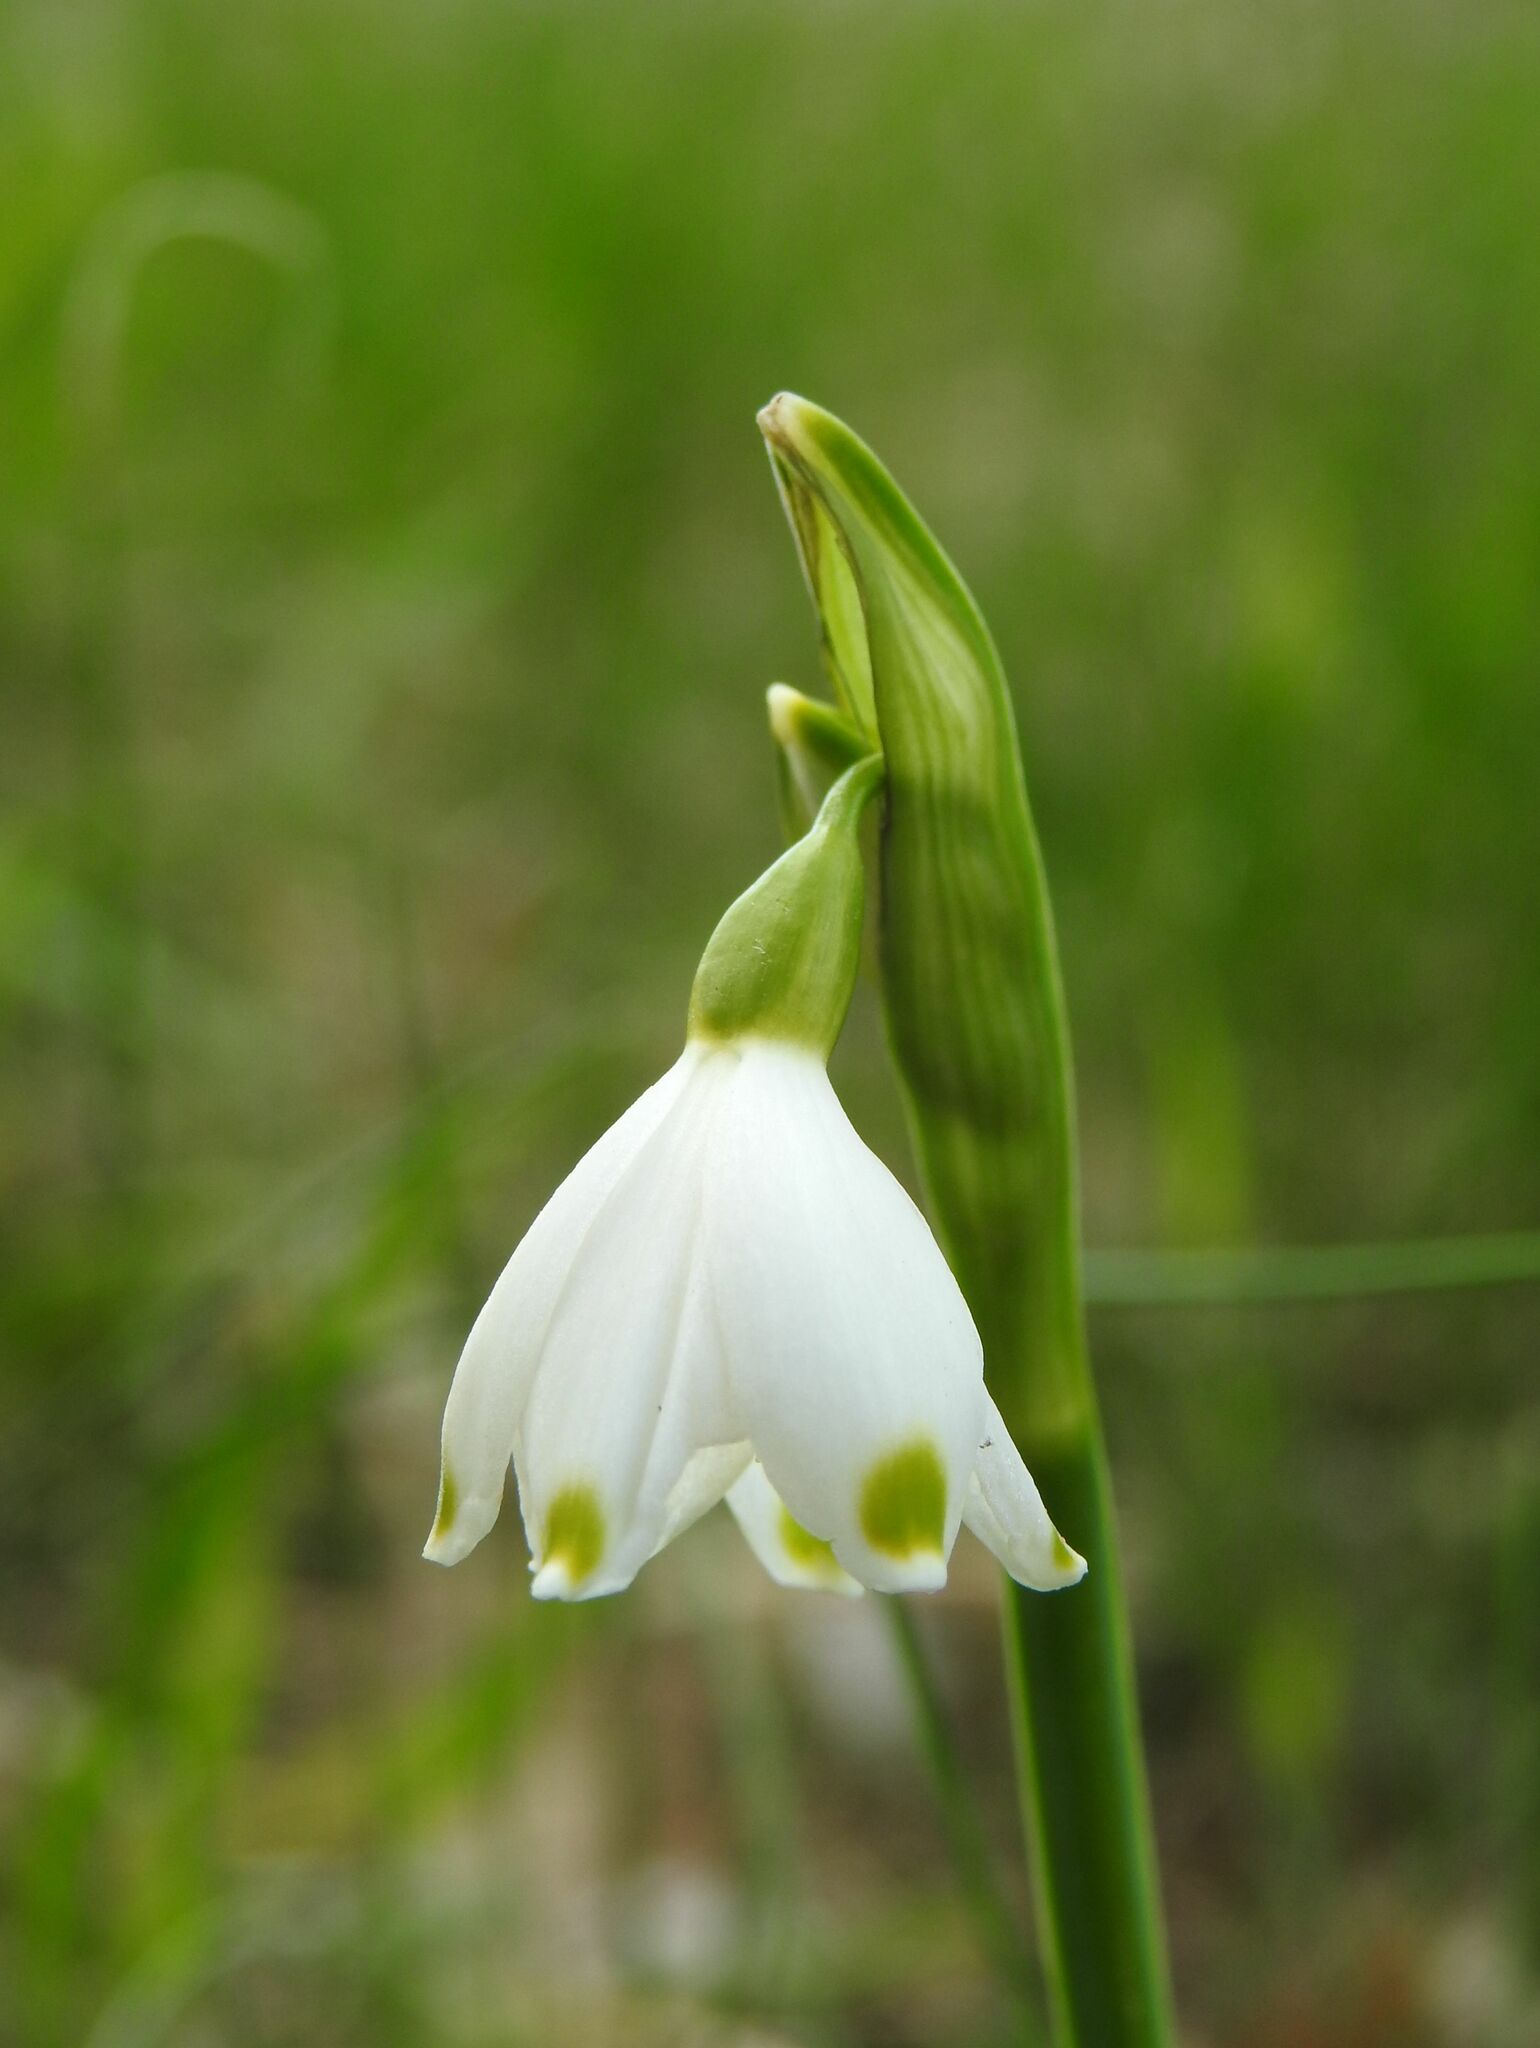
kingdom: Plantae
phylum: Tracheophyta
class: Liliopsida
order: Asparagales
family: Amaryllidaceae
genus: Leucojum
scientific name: Leucojum aestivum
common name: Summer snowflake
